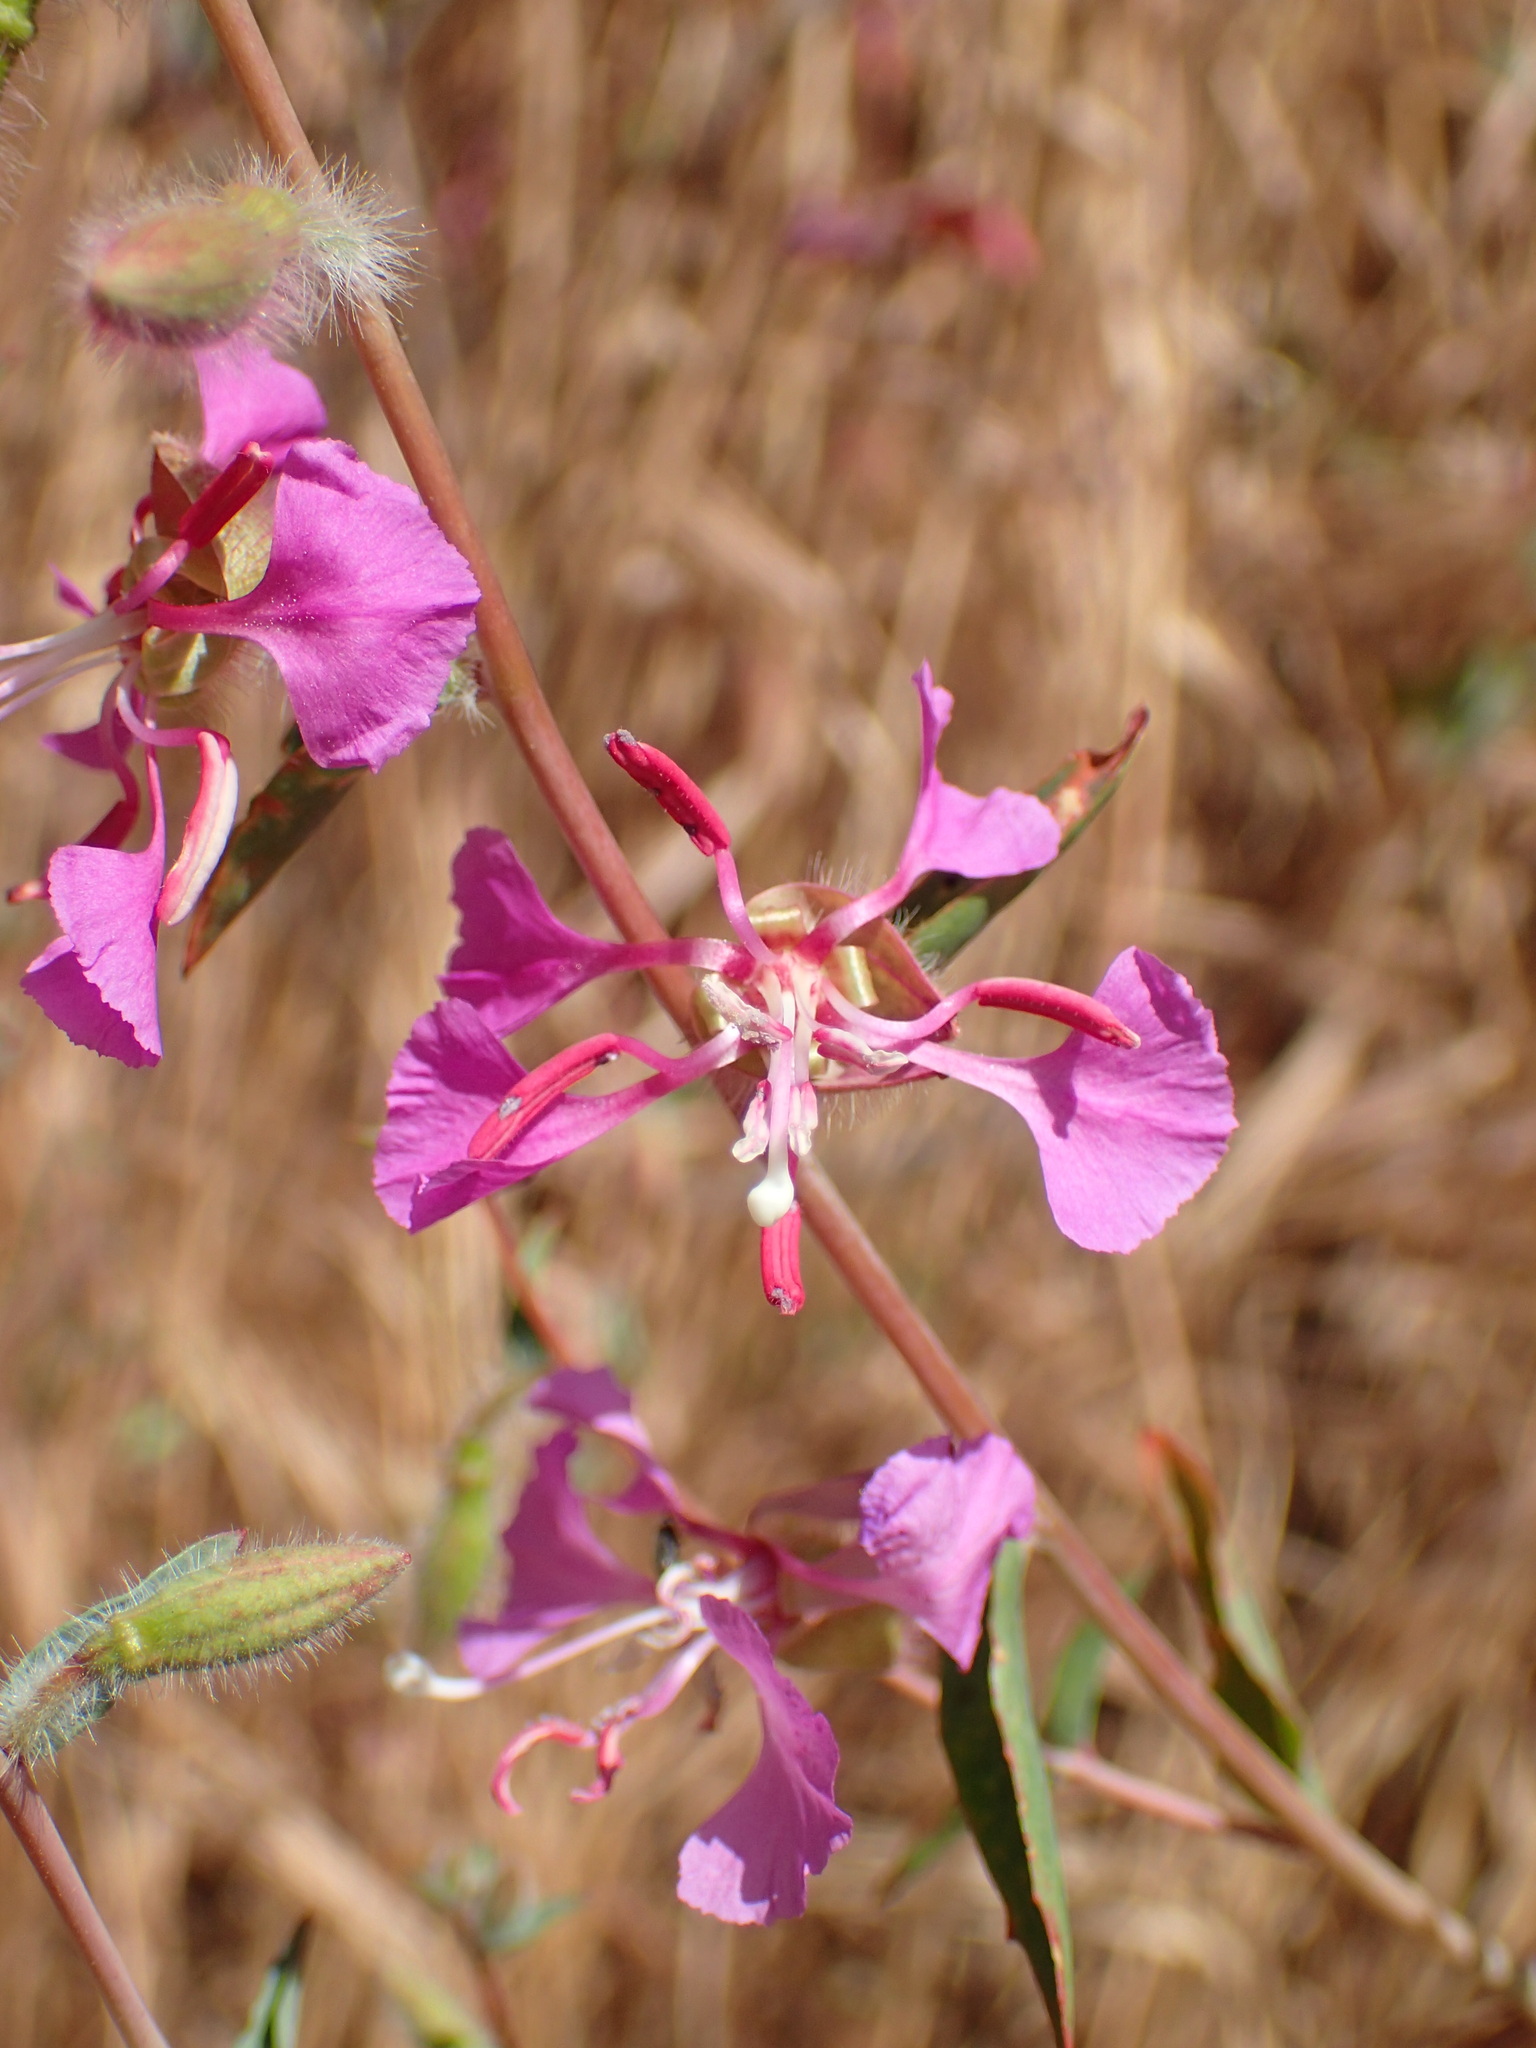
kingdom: Plantae
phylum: Tracheophyta
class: Magnoliopsida
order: Myrtales
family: Onagraceae
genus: Clarkia
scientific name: Clarkia unguiculata
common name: Clarkia
